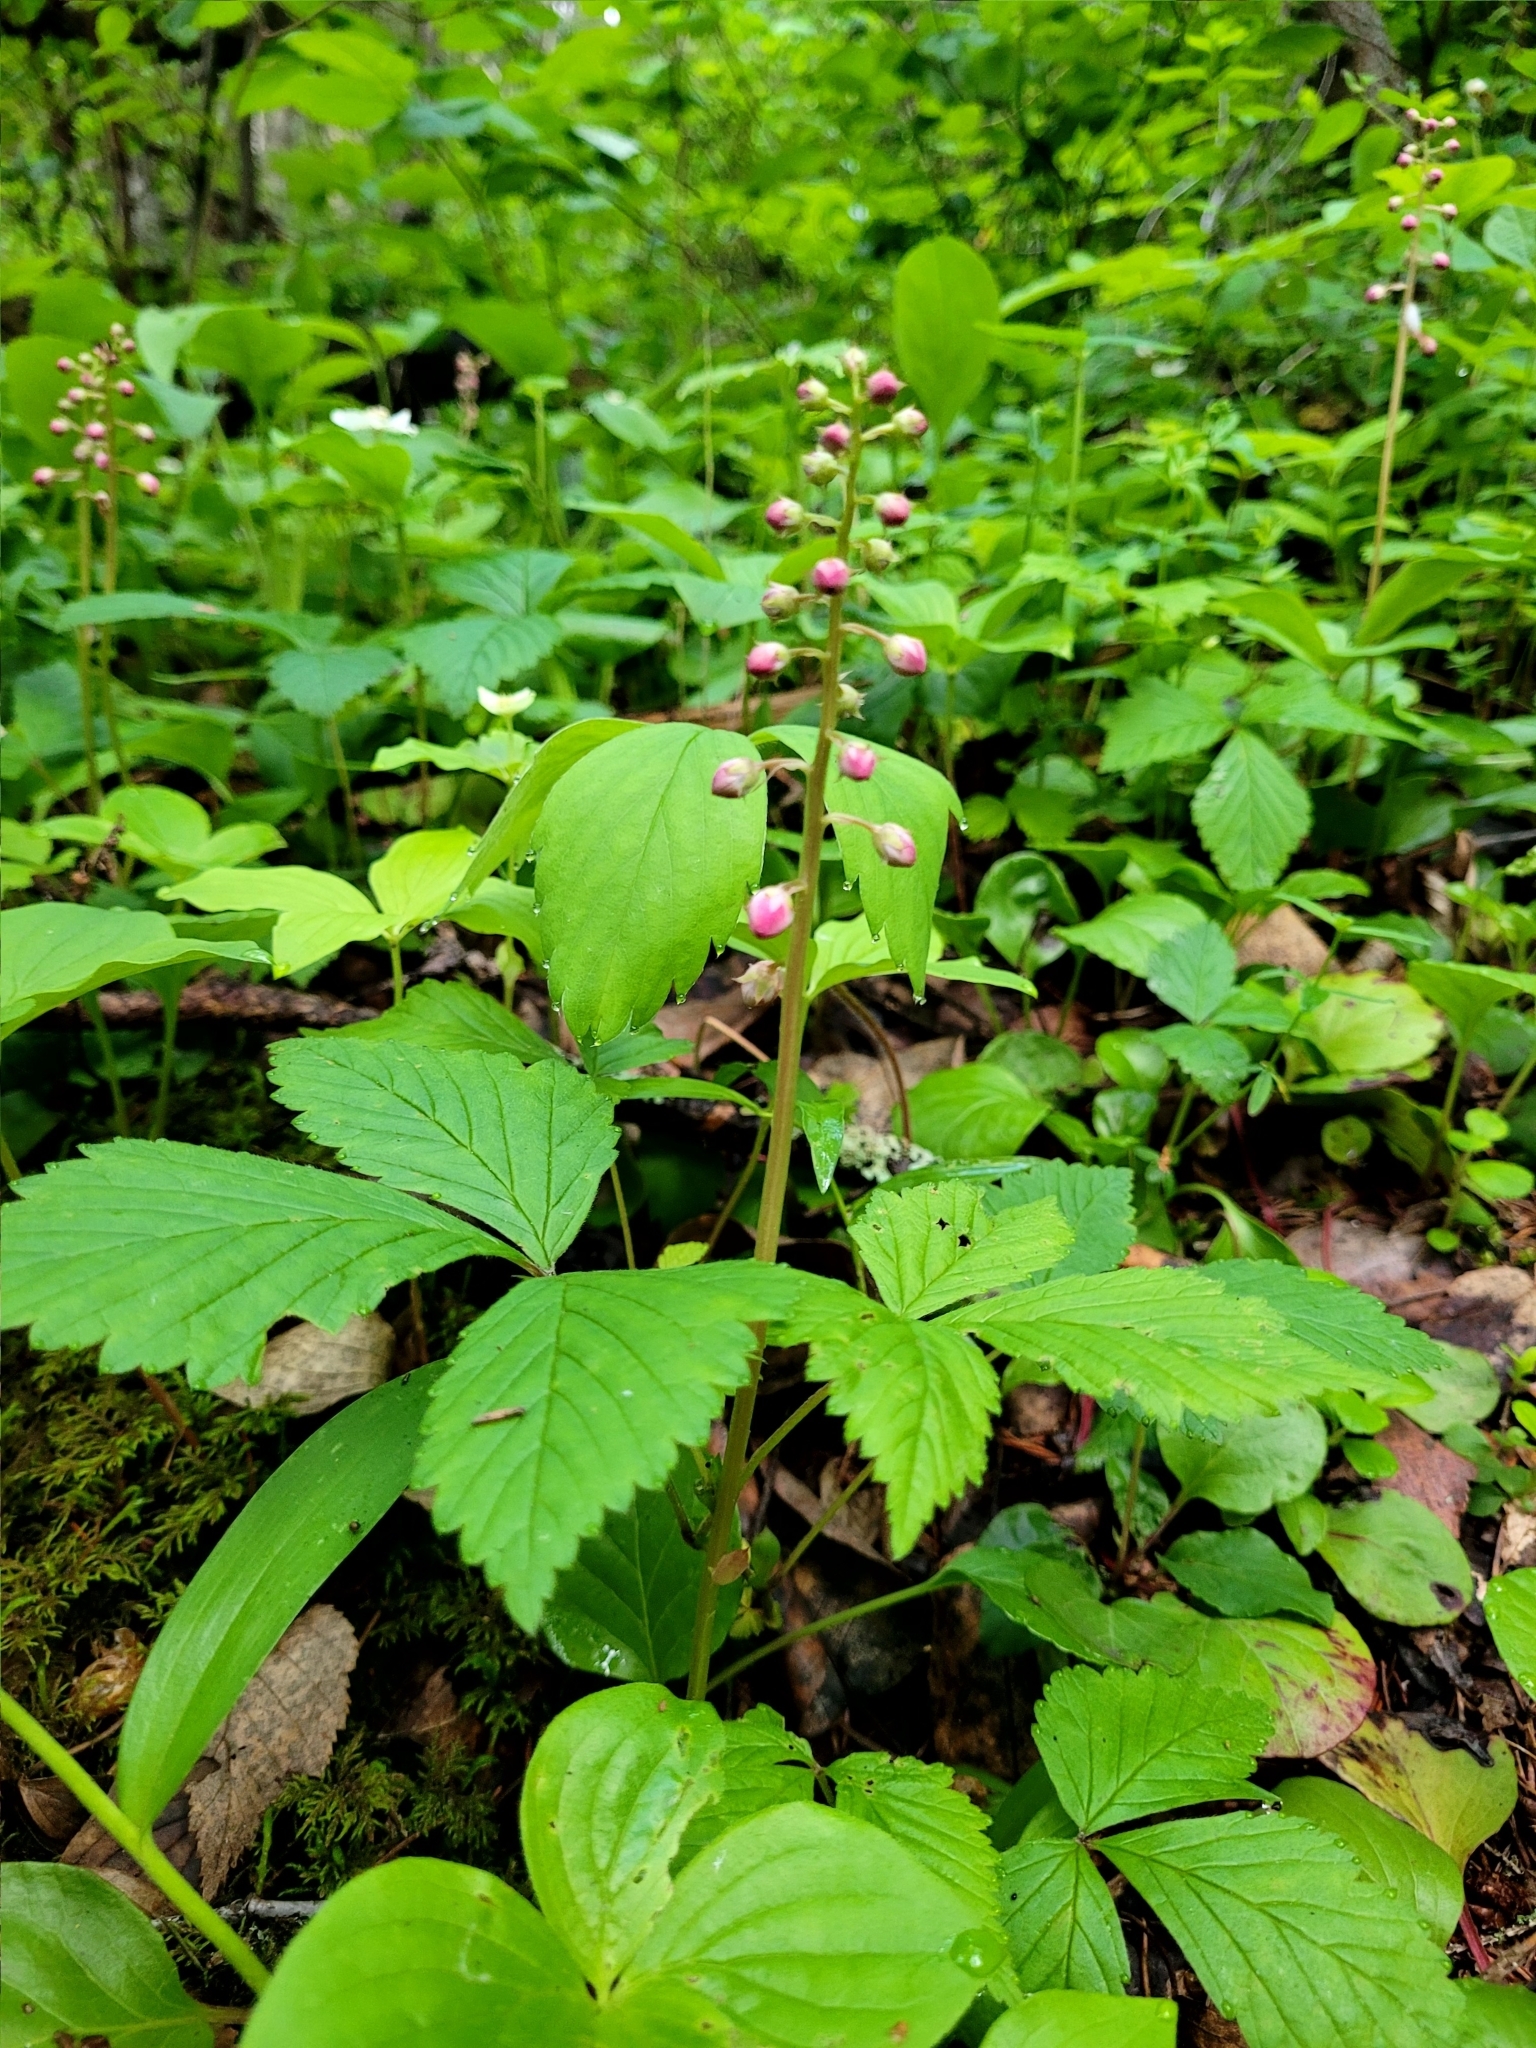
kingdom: Plantae
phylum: Tracheophyta
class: Magnoliopsida
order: Ericales
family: Ericaceae
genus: Pyrola
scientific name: Pyrola asarifolia
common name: Bog wintergreen
